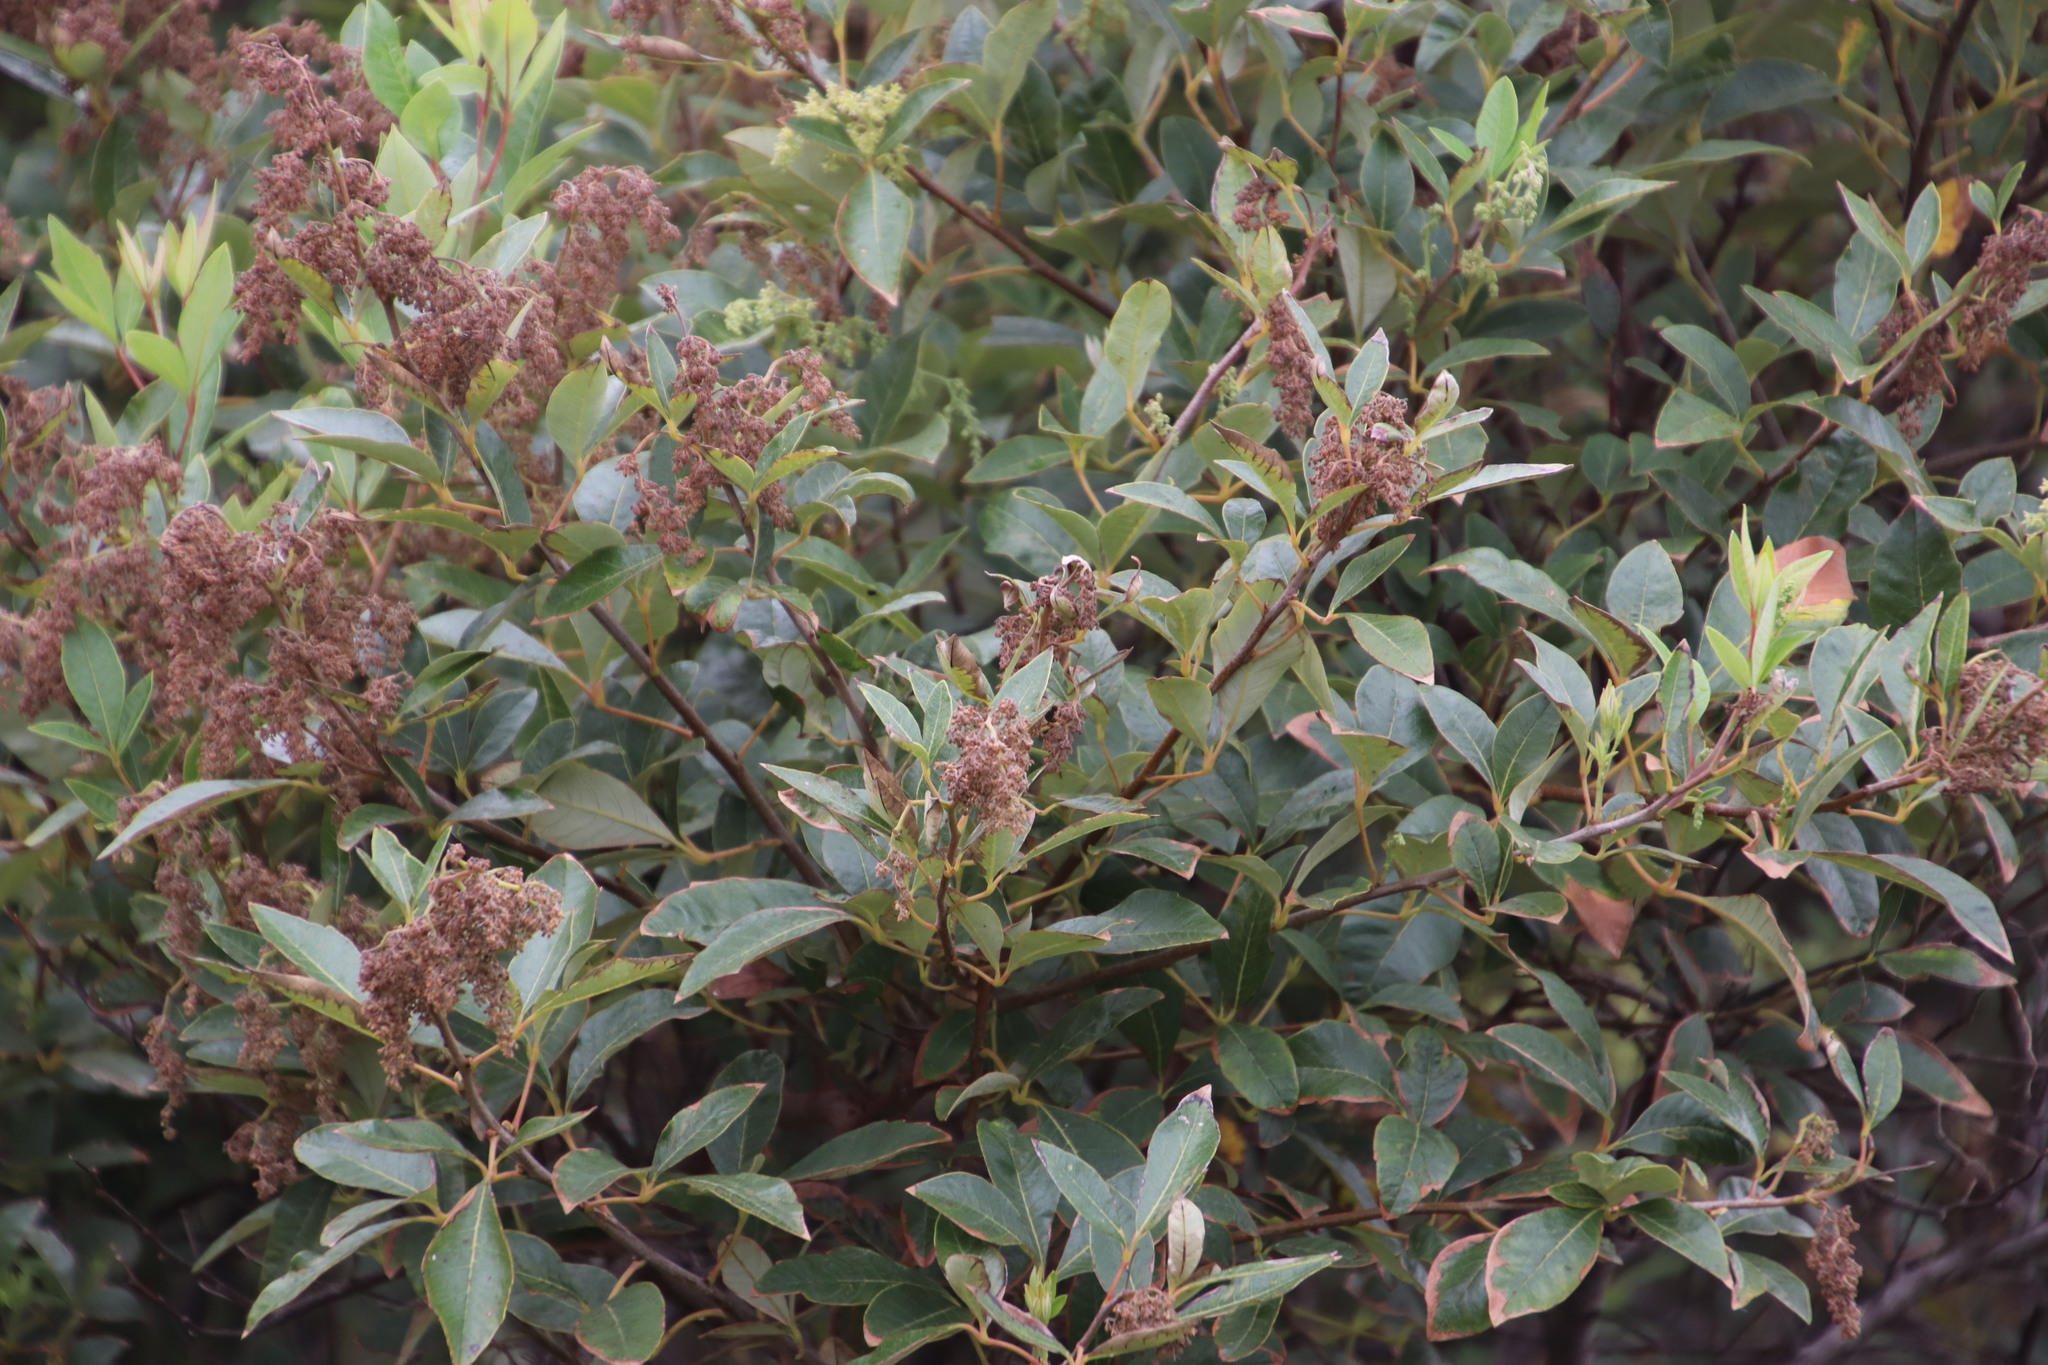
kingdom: Plantae
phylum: Tracheophyta
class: Magnoliopsida
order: Sapindales
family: Anacardiaceae
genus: Searsia
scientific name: Searsia tomentosa
